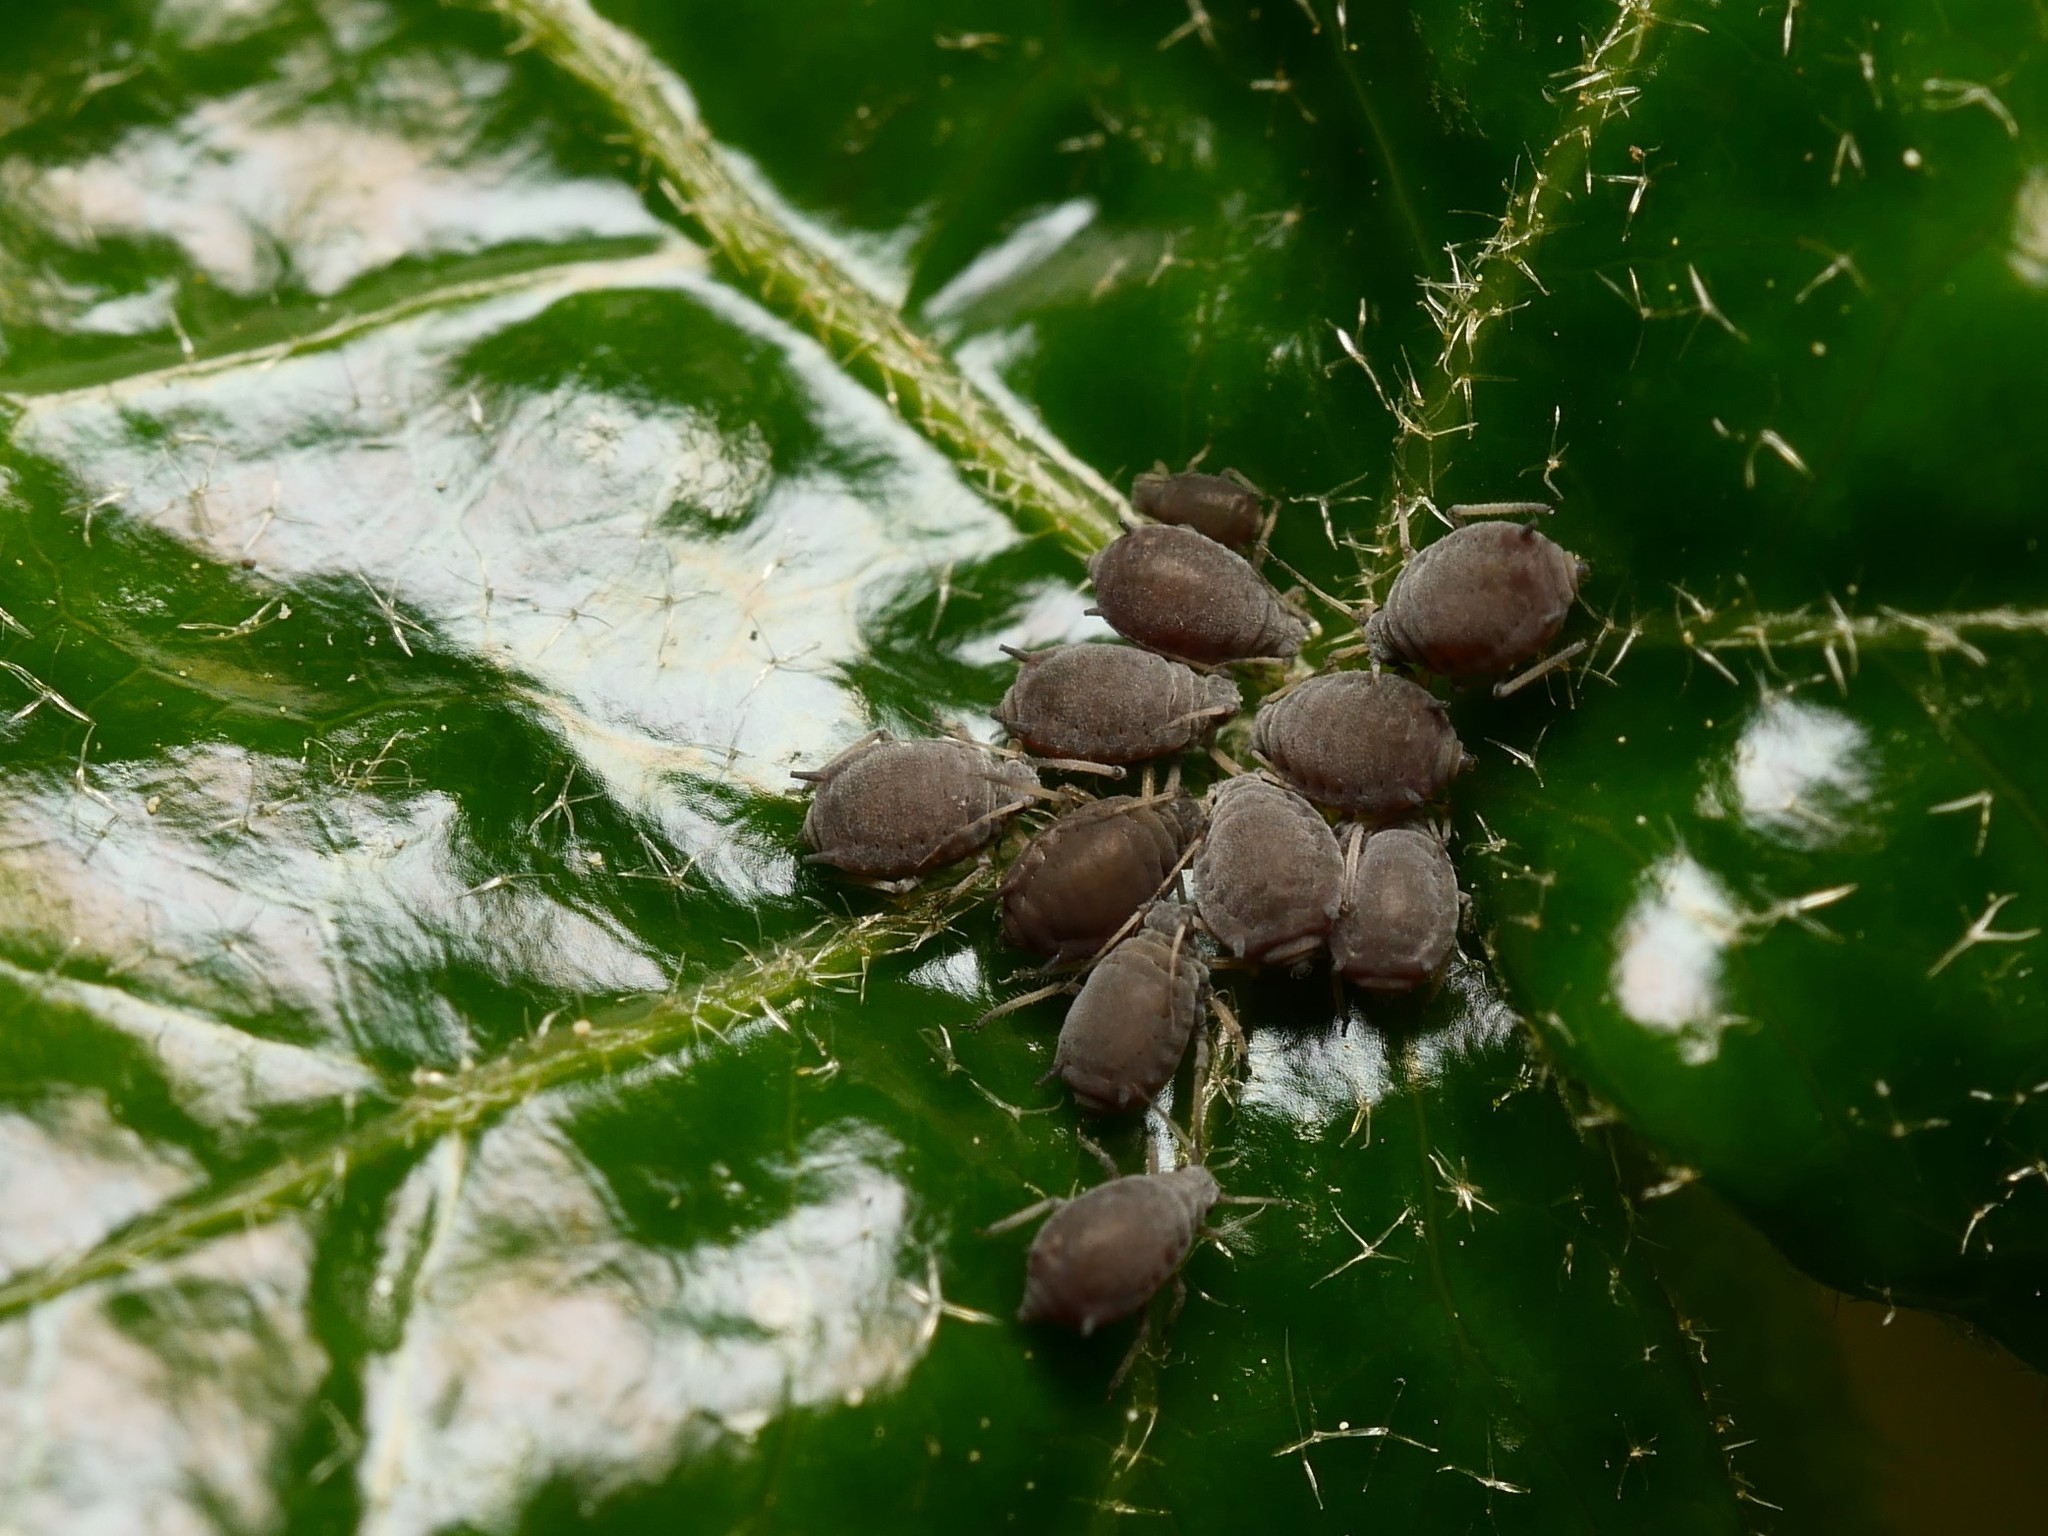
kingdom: Animalia
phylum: Arthropoda
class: Insecta
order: Hemiptera
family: Aphididae
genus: Aphis
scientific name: Aphis hederae
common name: Ivy aphid
